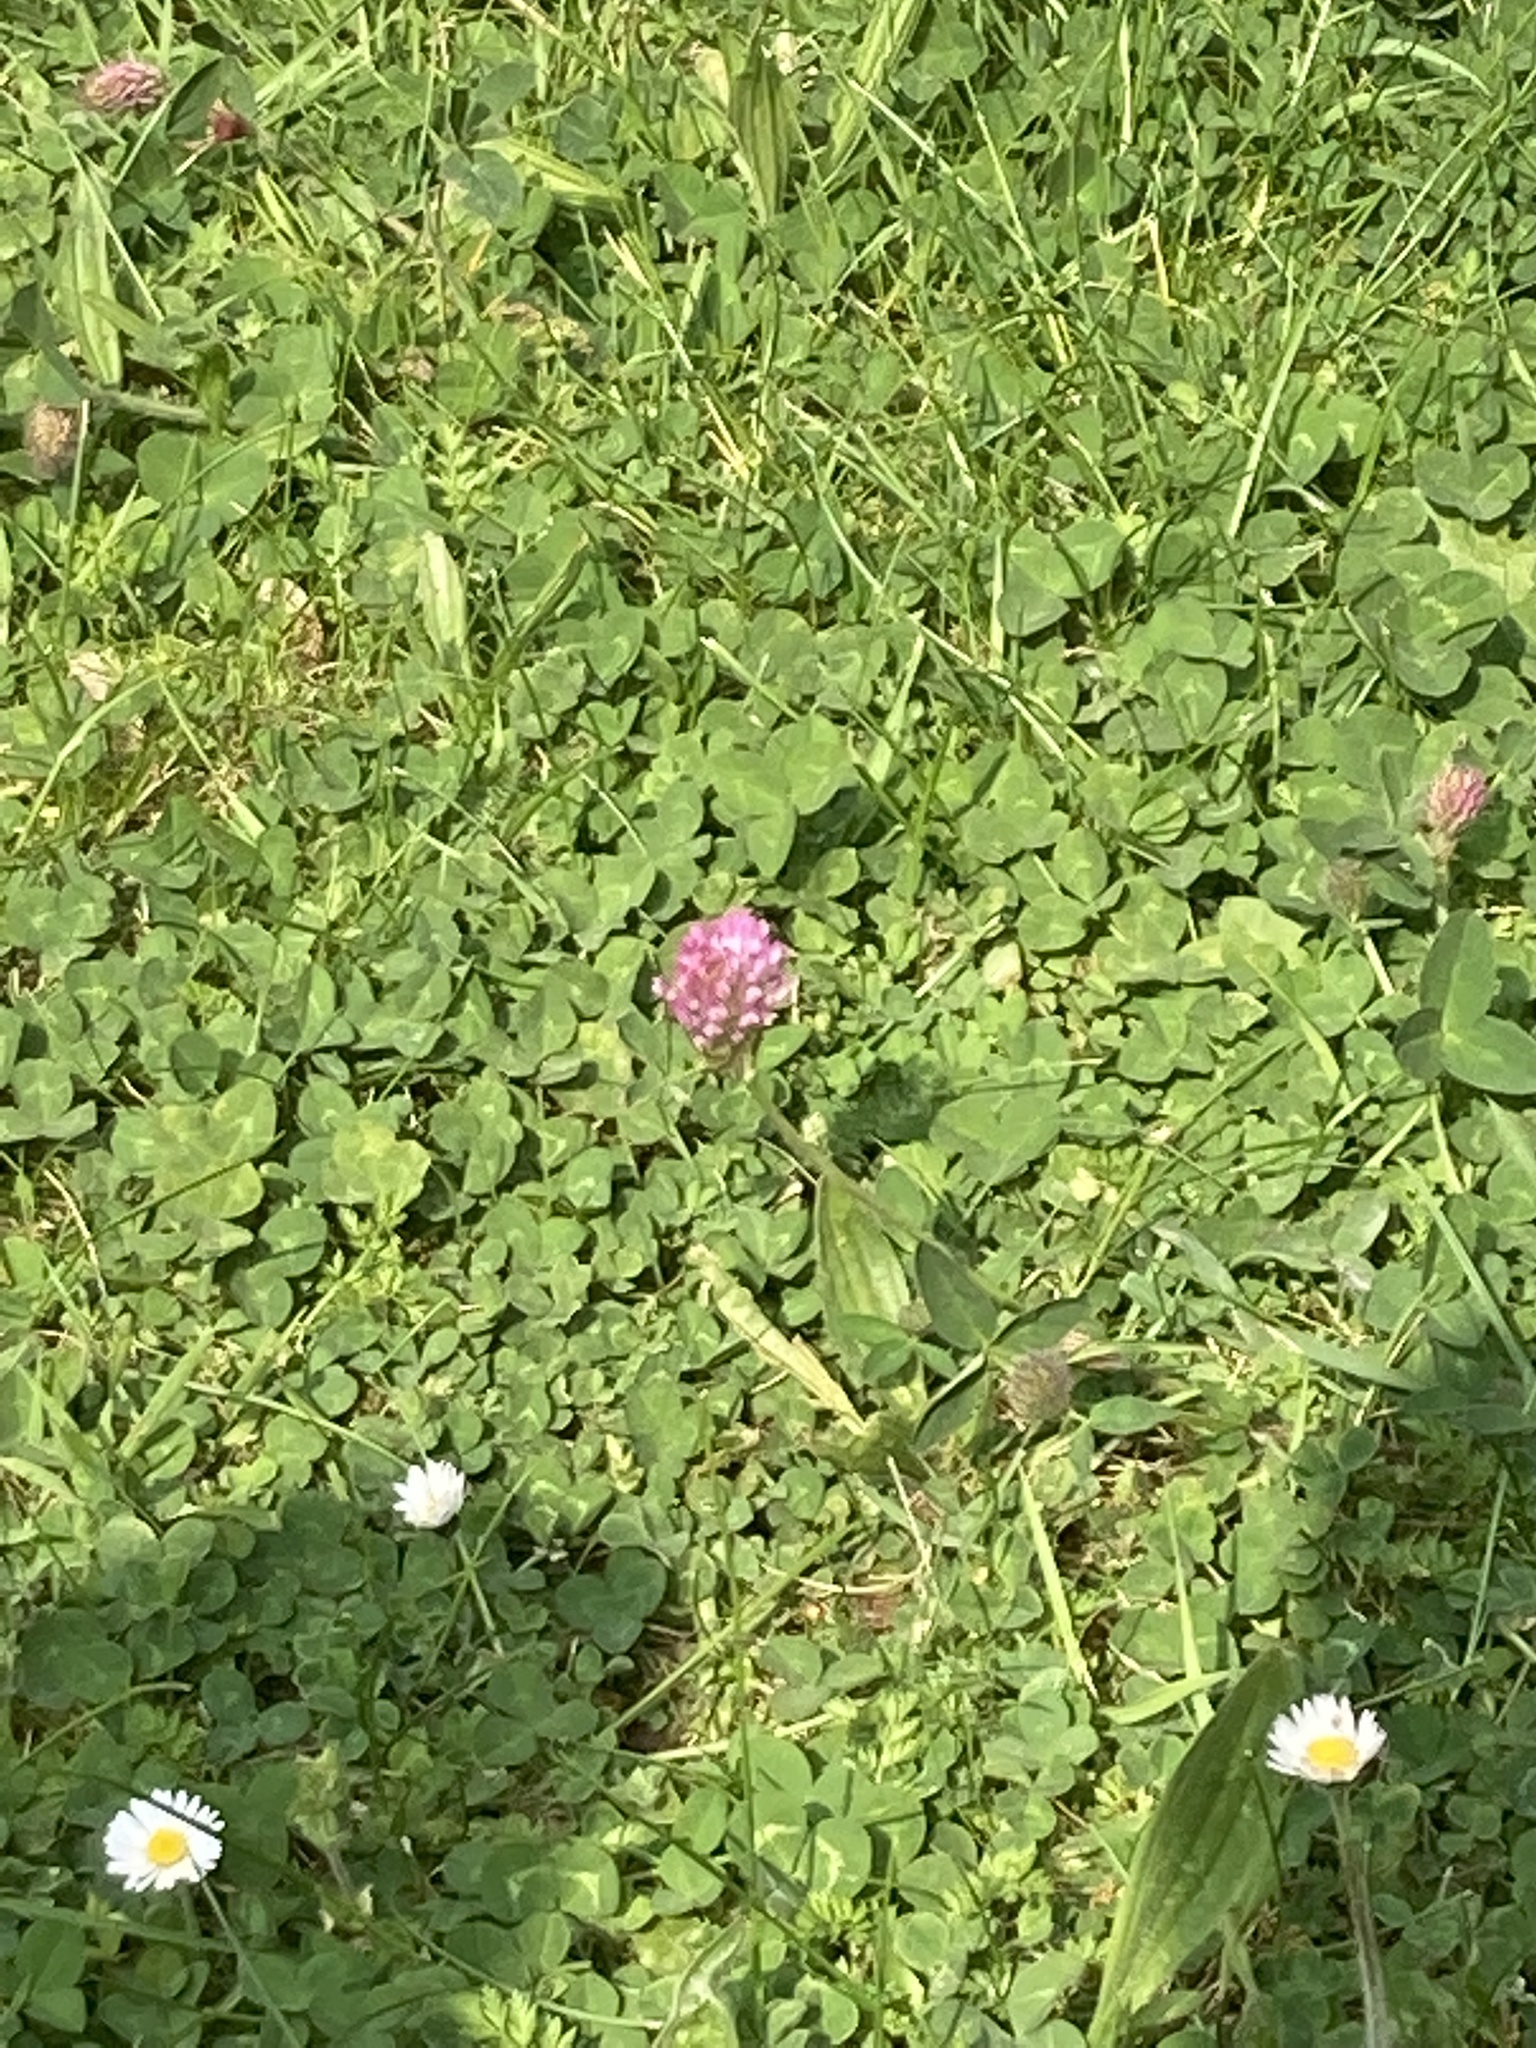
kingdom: Plantae
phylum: Tracheophyta
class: Magnoliopsida
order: Fabales
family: Fabaceae
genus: Trifolium
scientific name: Trifolium pratense
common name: Red clover
